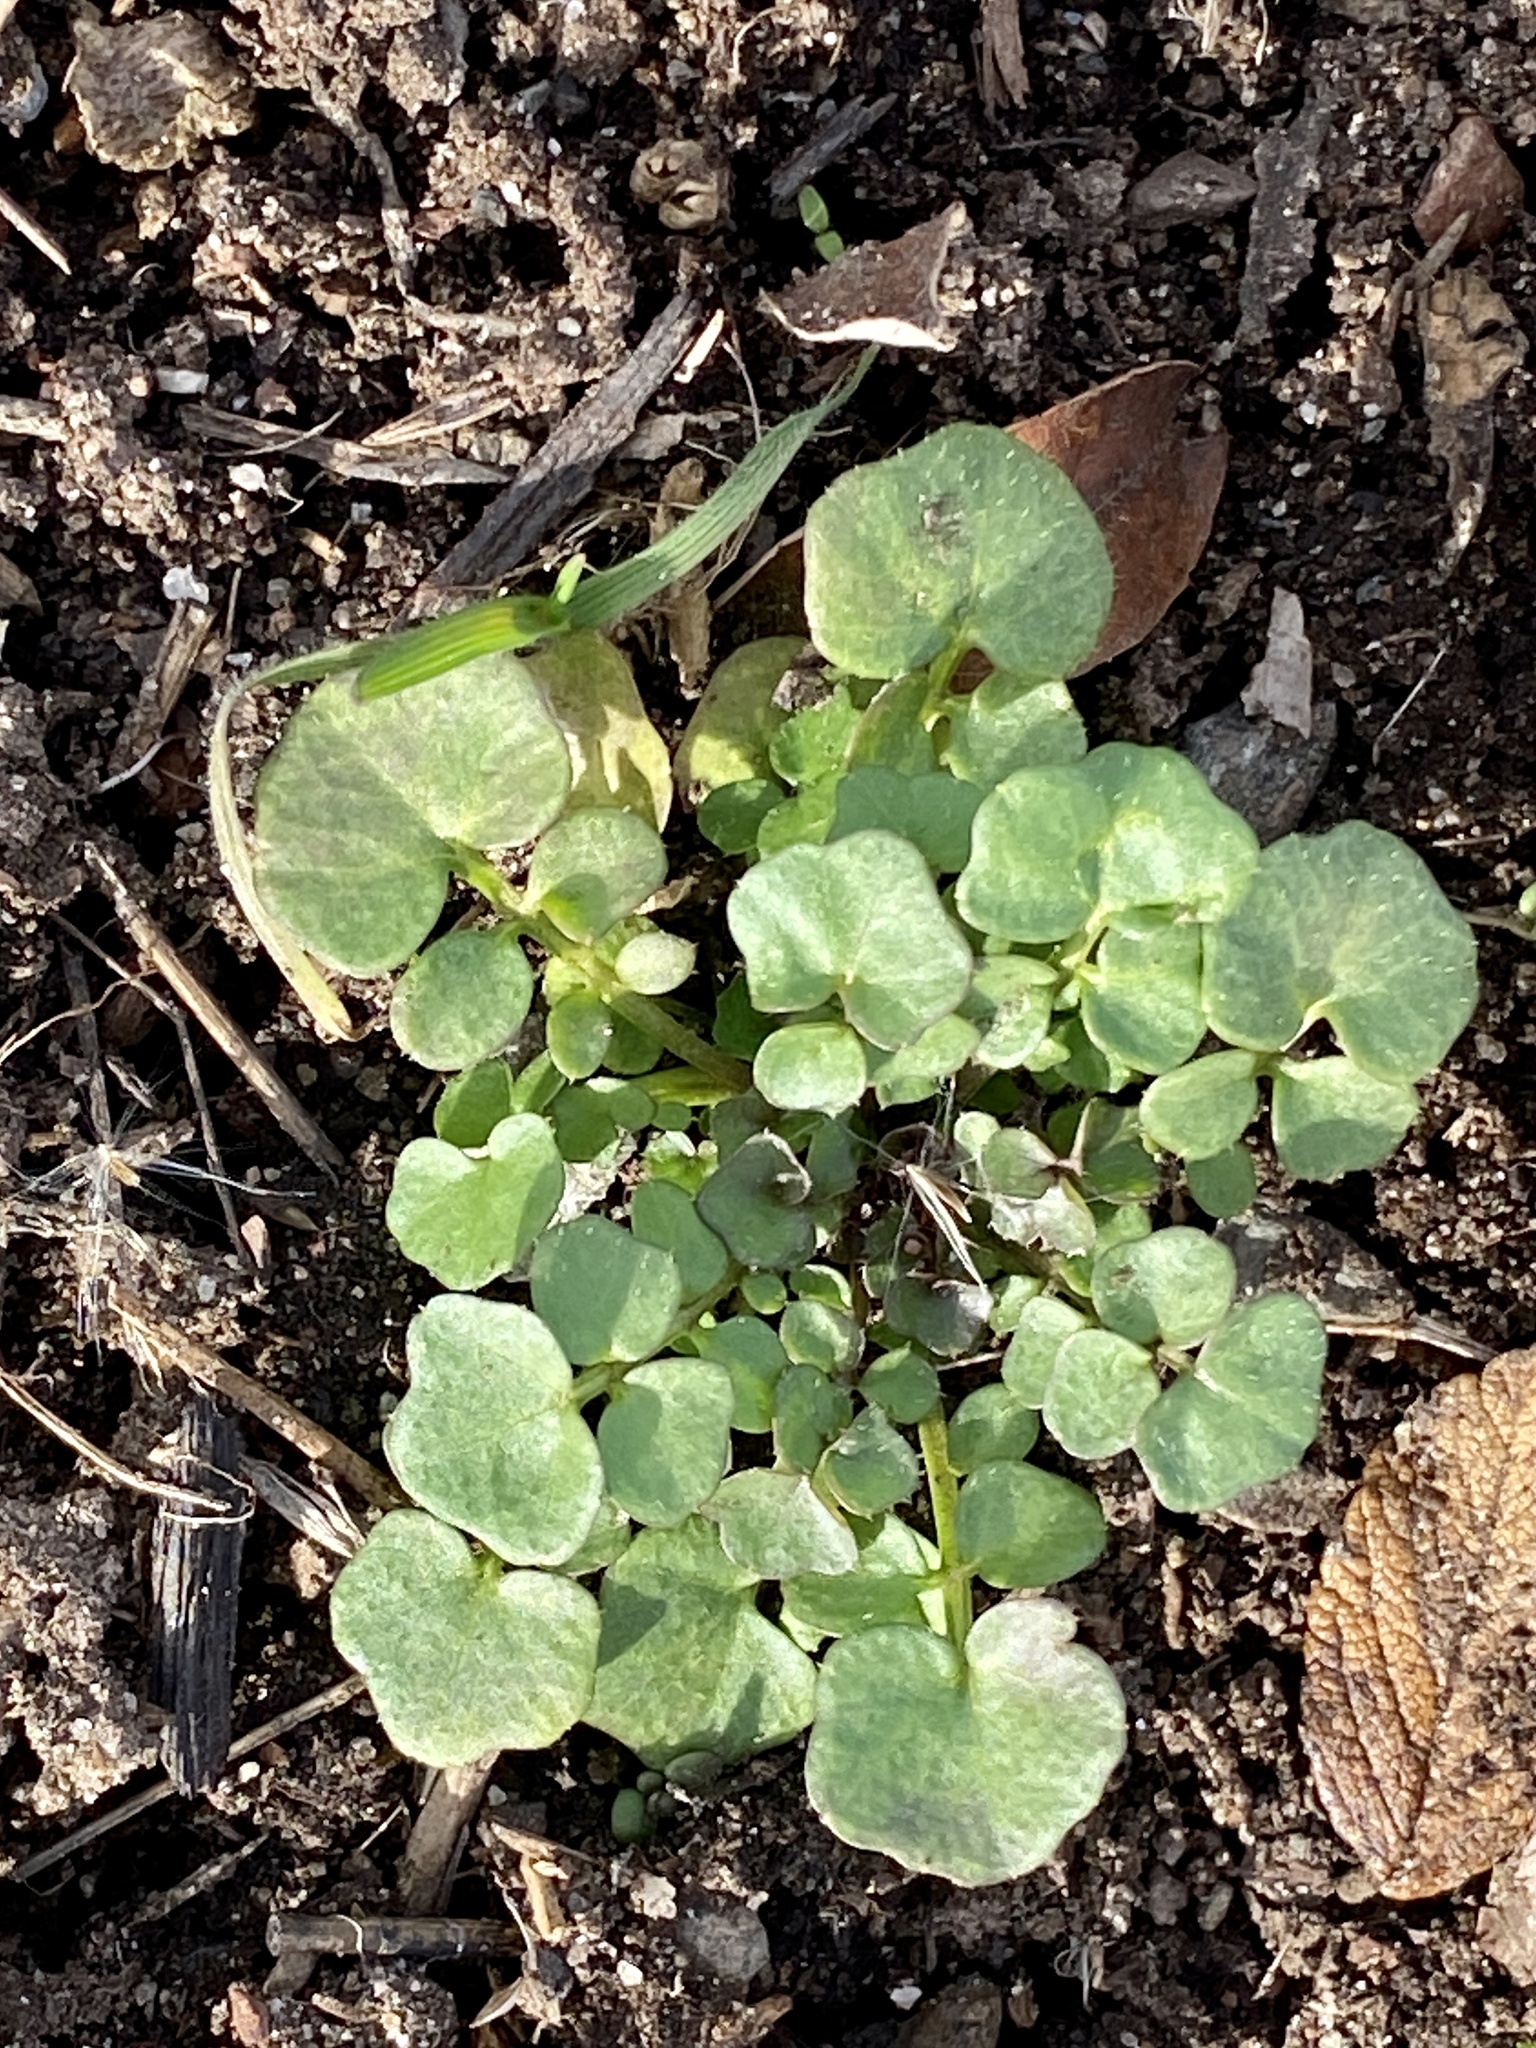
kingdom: Plantae
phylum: Tracheophyta
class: Magnoliopsida
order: Brassicales
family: Brassicaceae
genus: Cardamine
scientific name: Cardamine hirsuta
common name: Hairy bittercress
